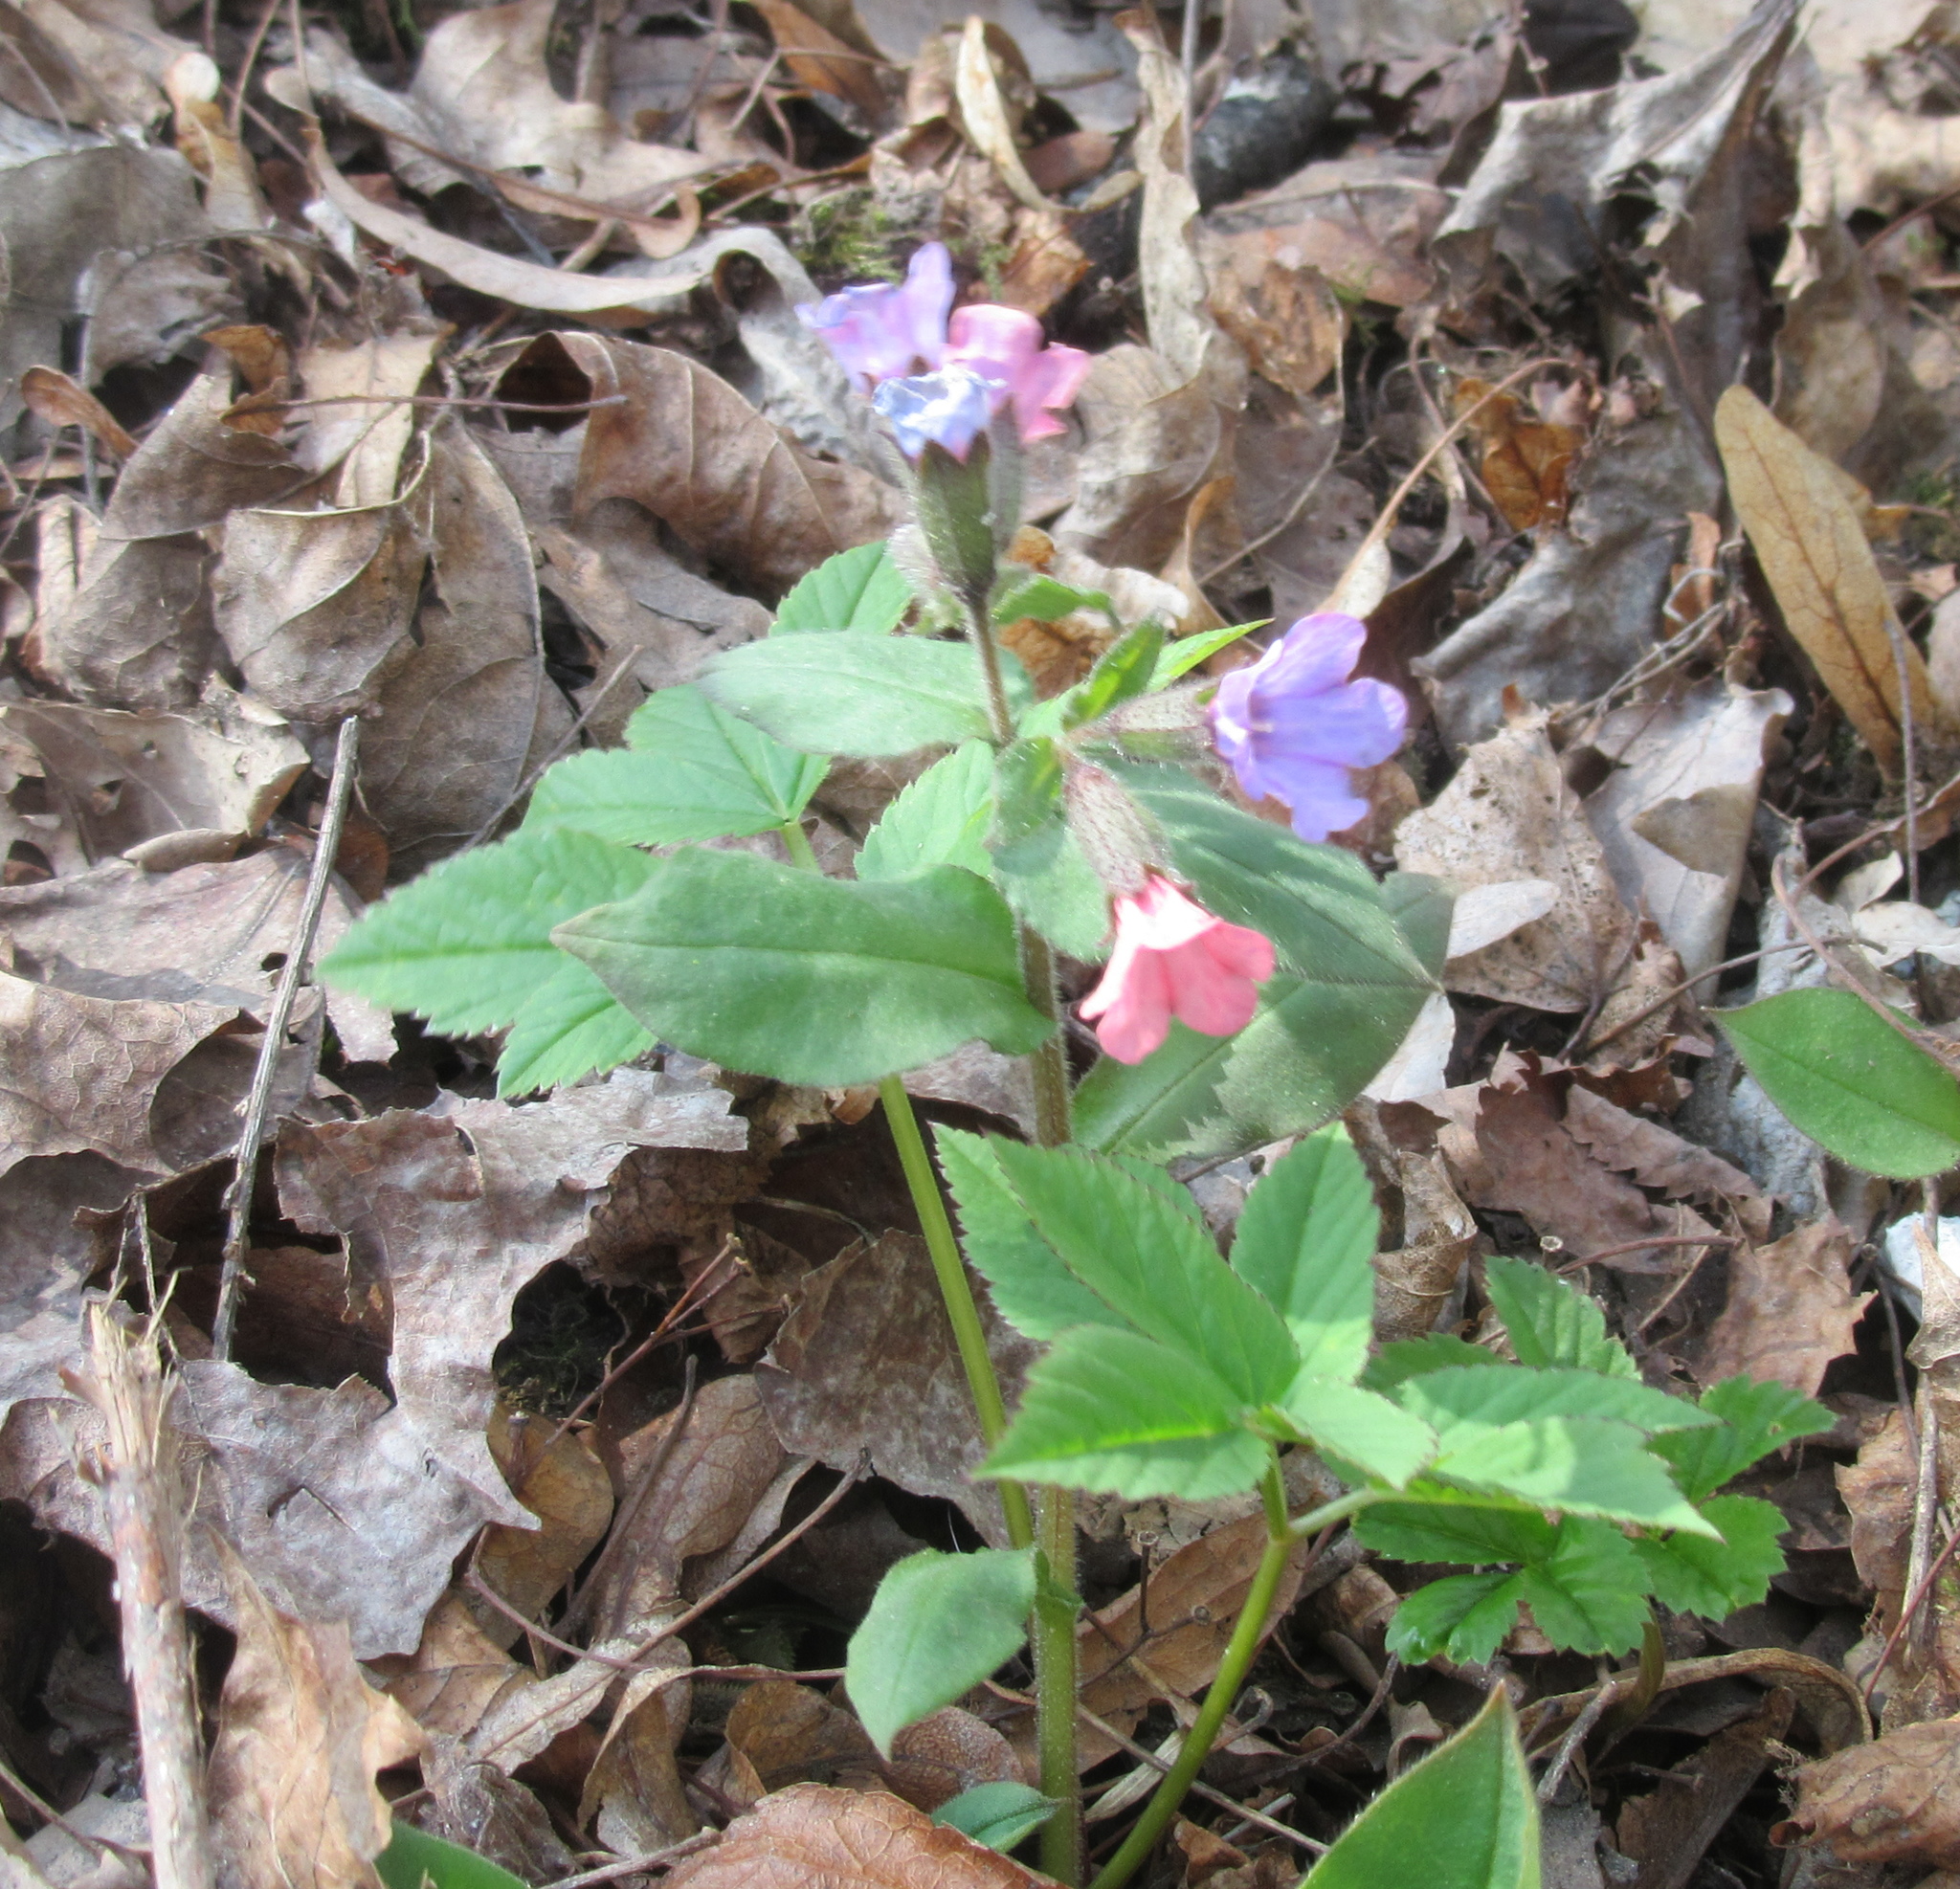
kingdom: Plantae
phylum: Tracheophyta
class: Magnoliopsida
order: Boraginales
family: Boraginaceae
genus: Pulmonaria
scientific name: Pulmonaria obscura
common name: Suffolk lungwort
